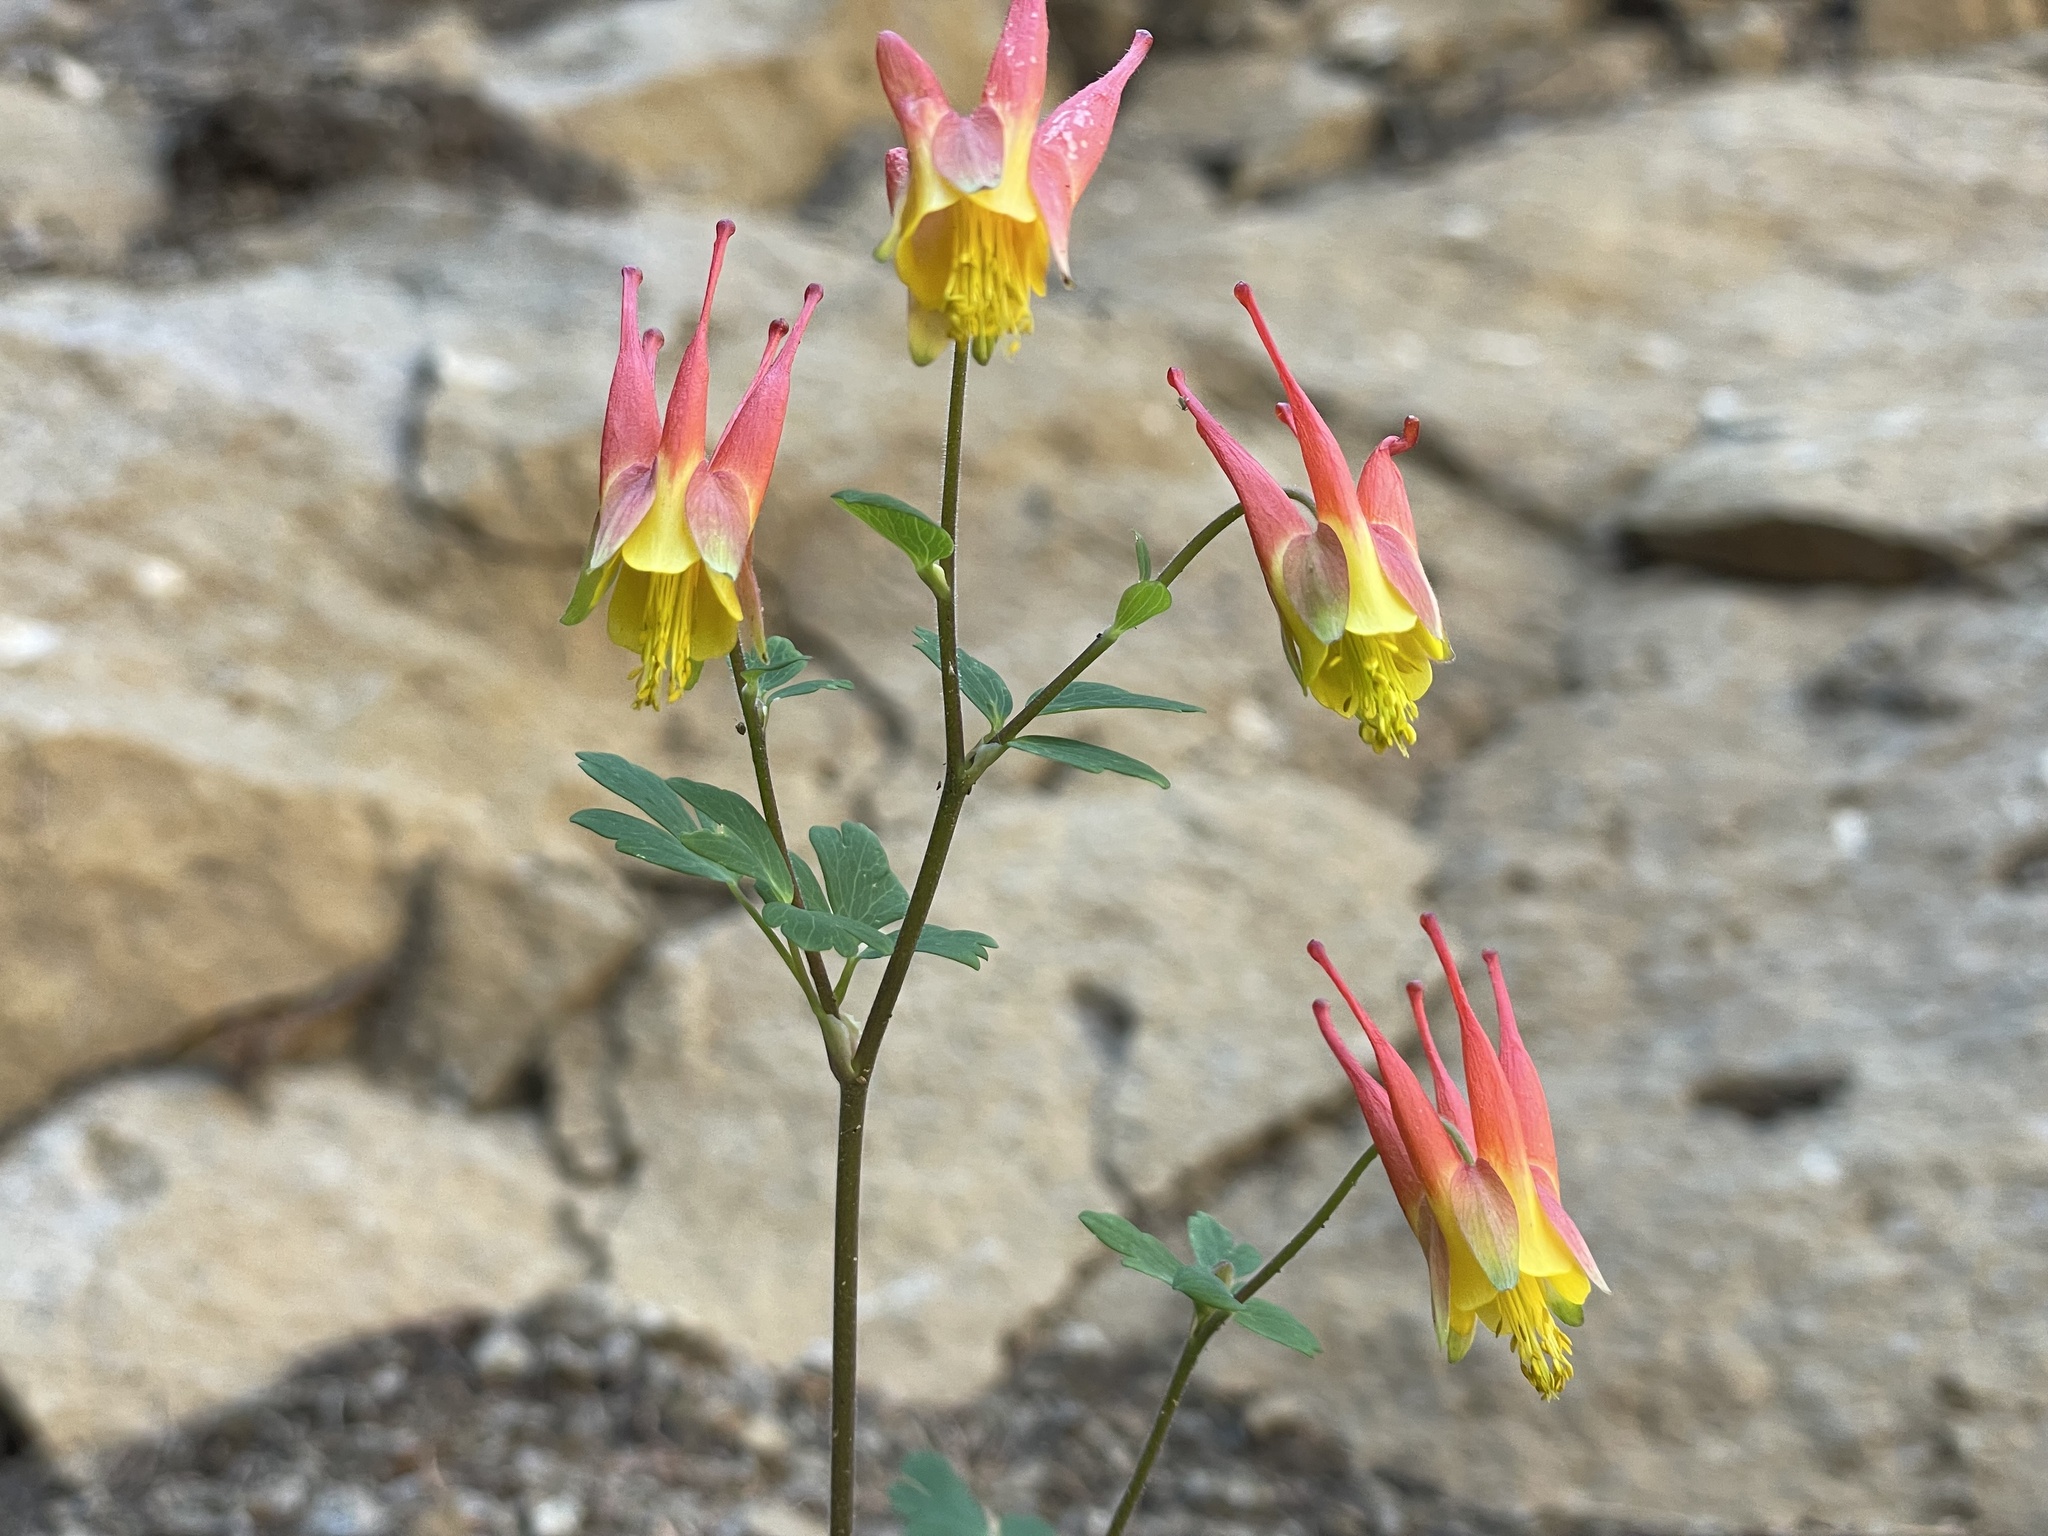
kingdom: Plantae
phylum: Tracheophyta
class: Magnoliopsida
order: Ranunculales
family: Ranunculaceae
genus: Aquilegia
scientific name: Aquilegia elegantula
